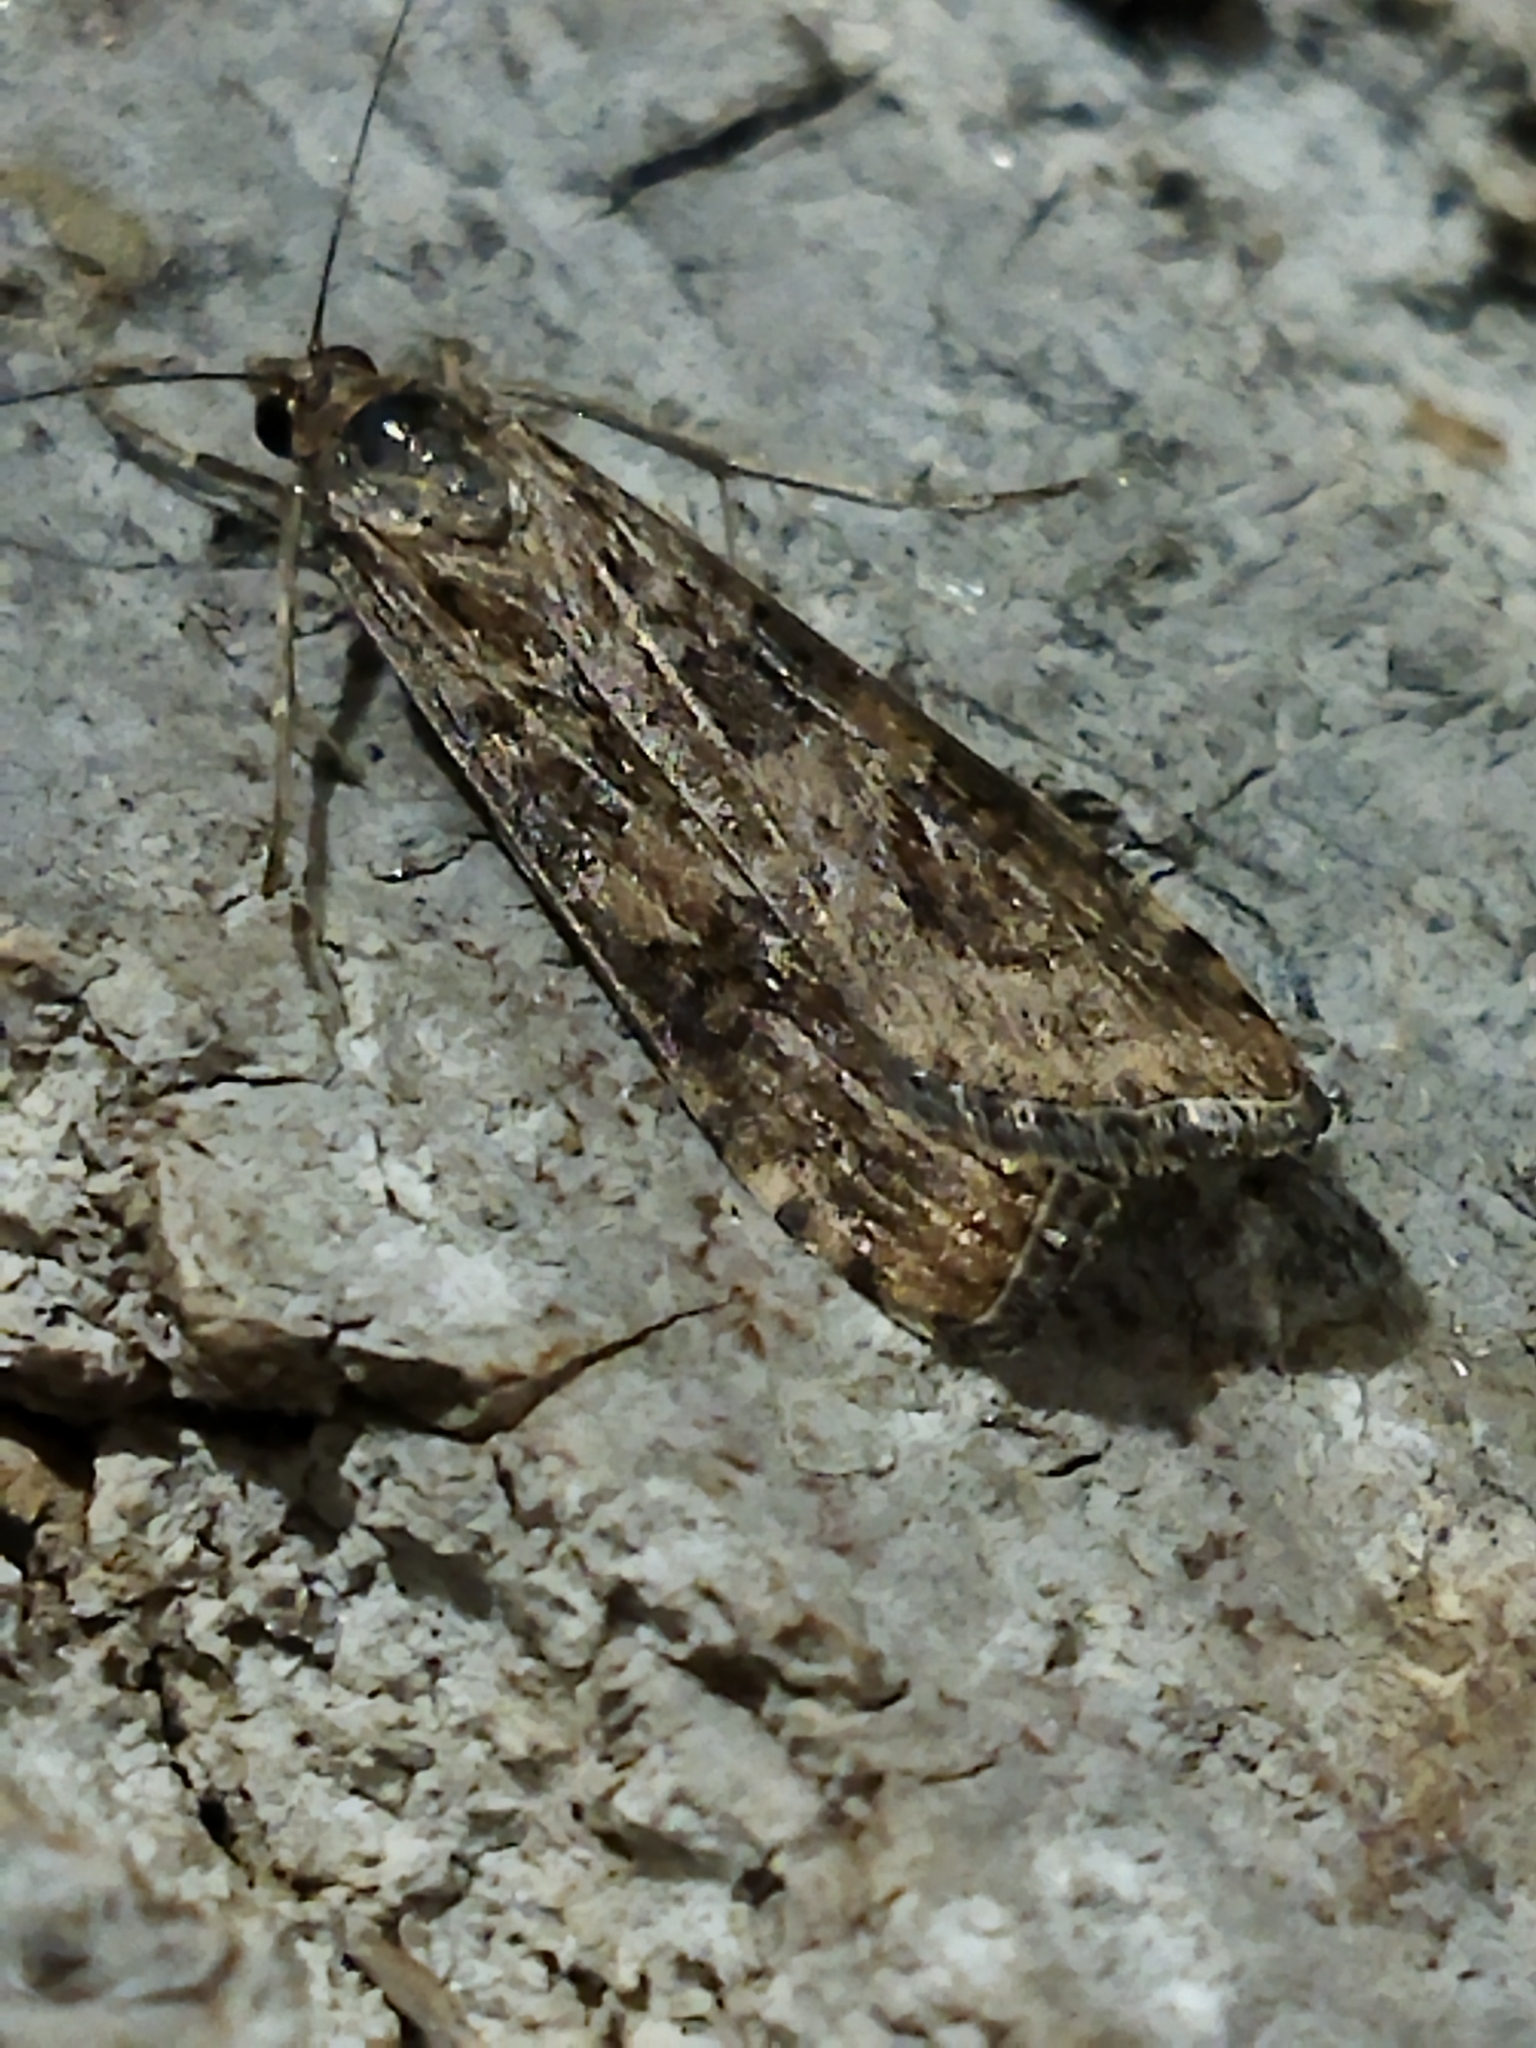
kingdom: Animalia
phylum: Arthropoda
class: Insecta
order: Lepidoptera
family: Crambidae
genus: Nomophila
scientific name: Nomophila noctuella
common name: Rush veneer
